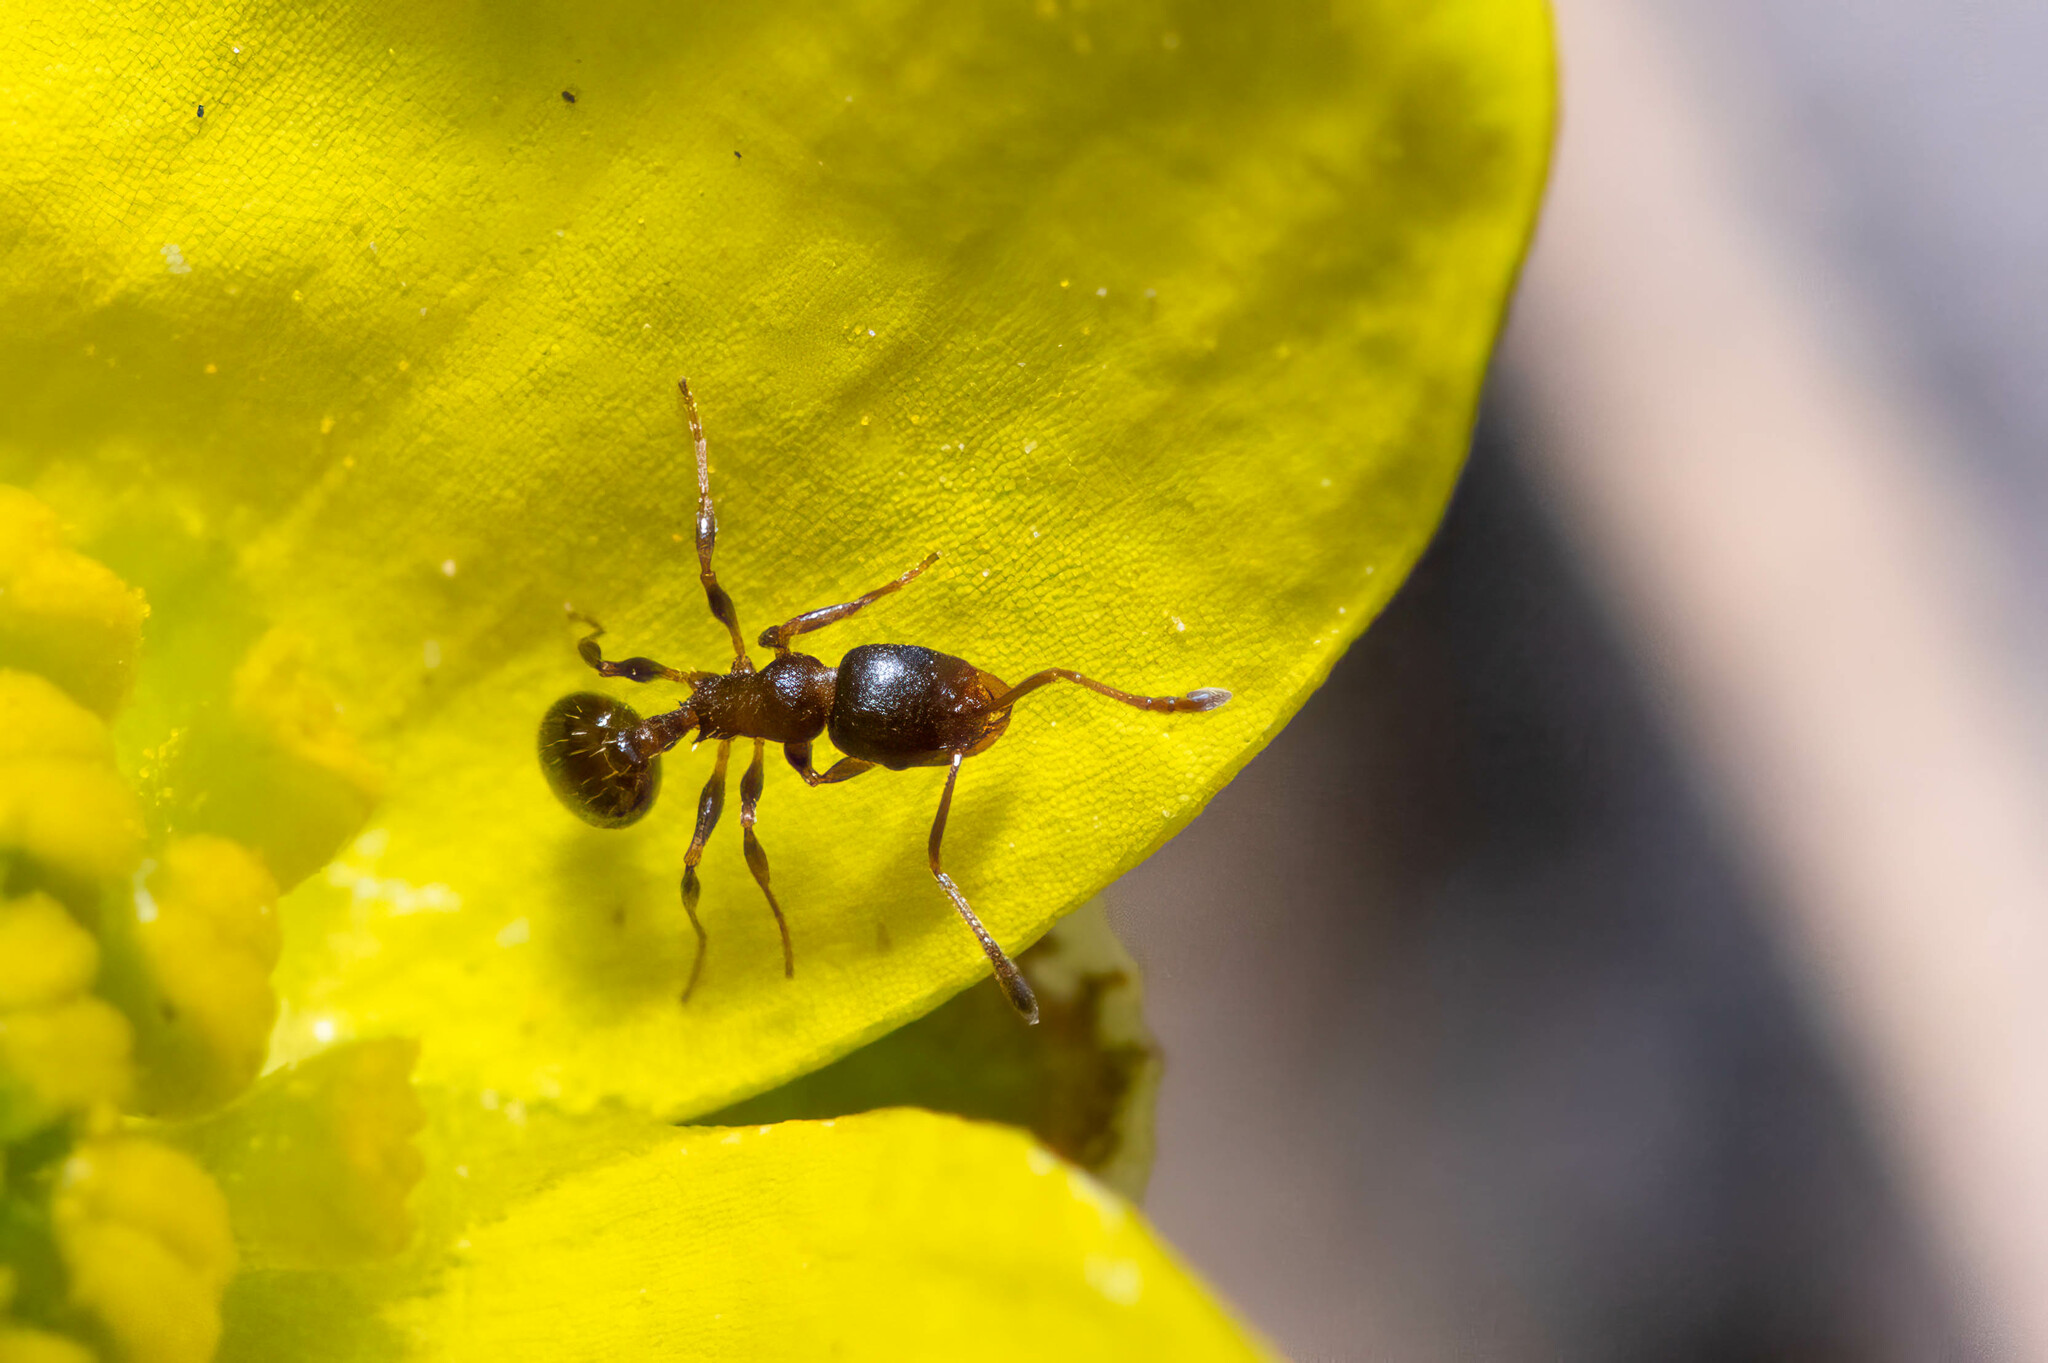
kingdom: Animalia
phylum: Arthropoda
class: Insecta
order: Hymenoptera
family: Formicidae
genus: Aphaenogaster
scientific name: Aphaenogaster occidentalis
